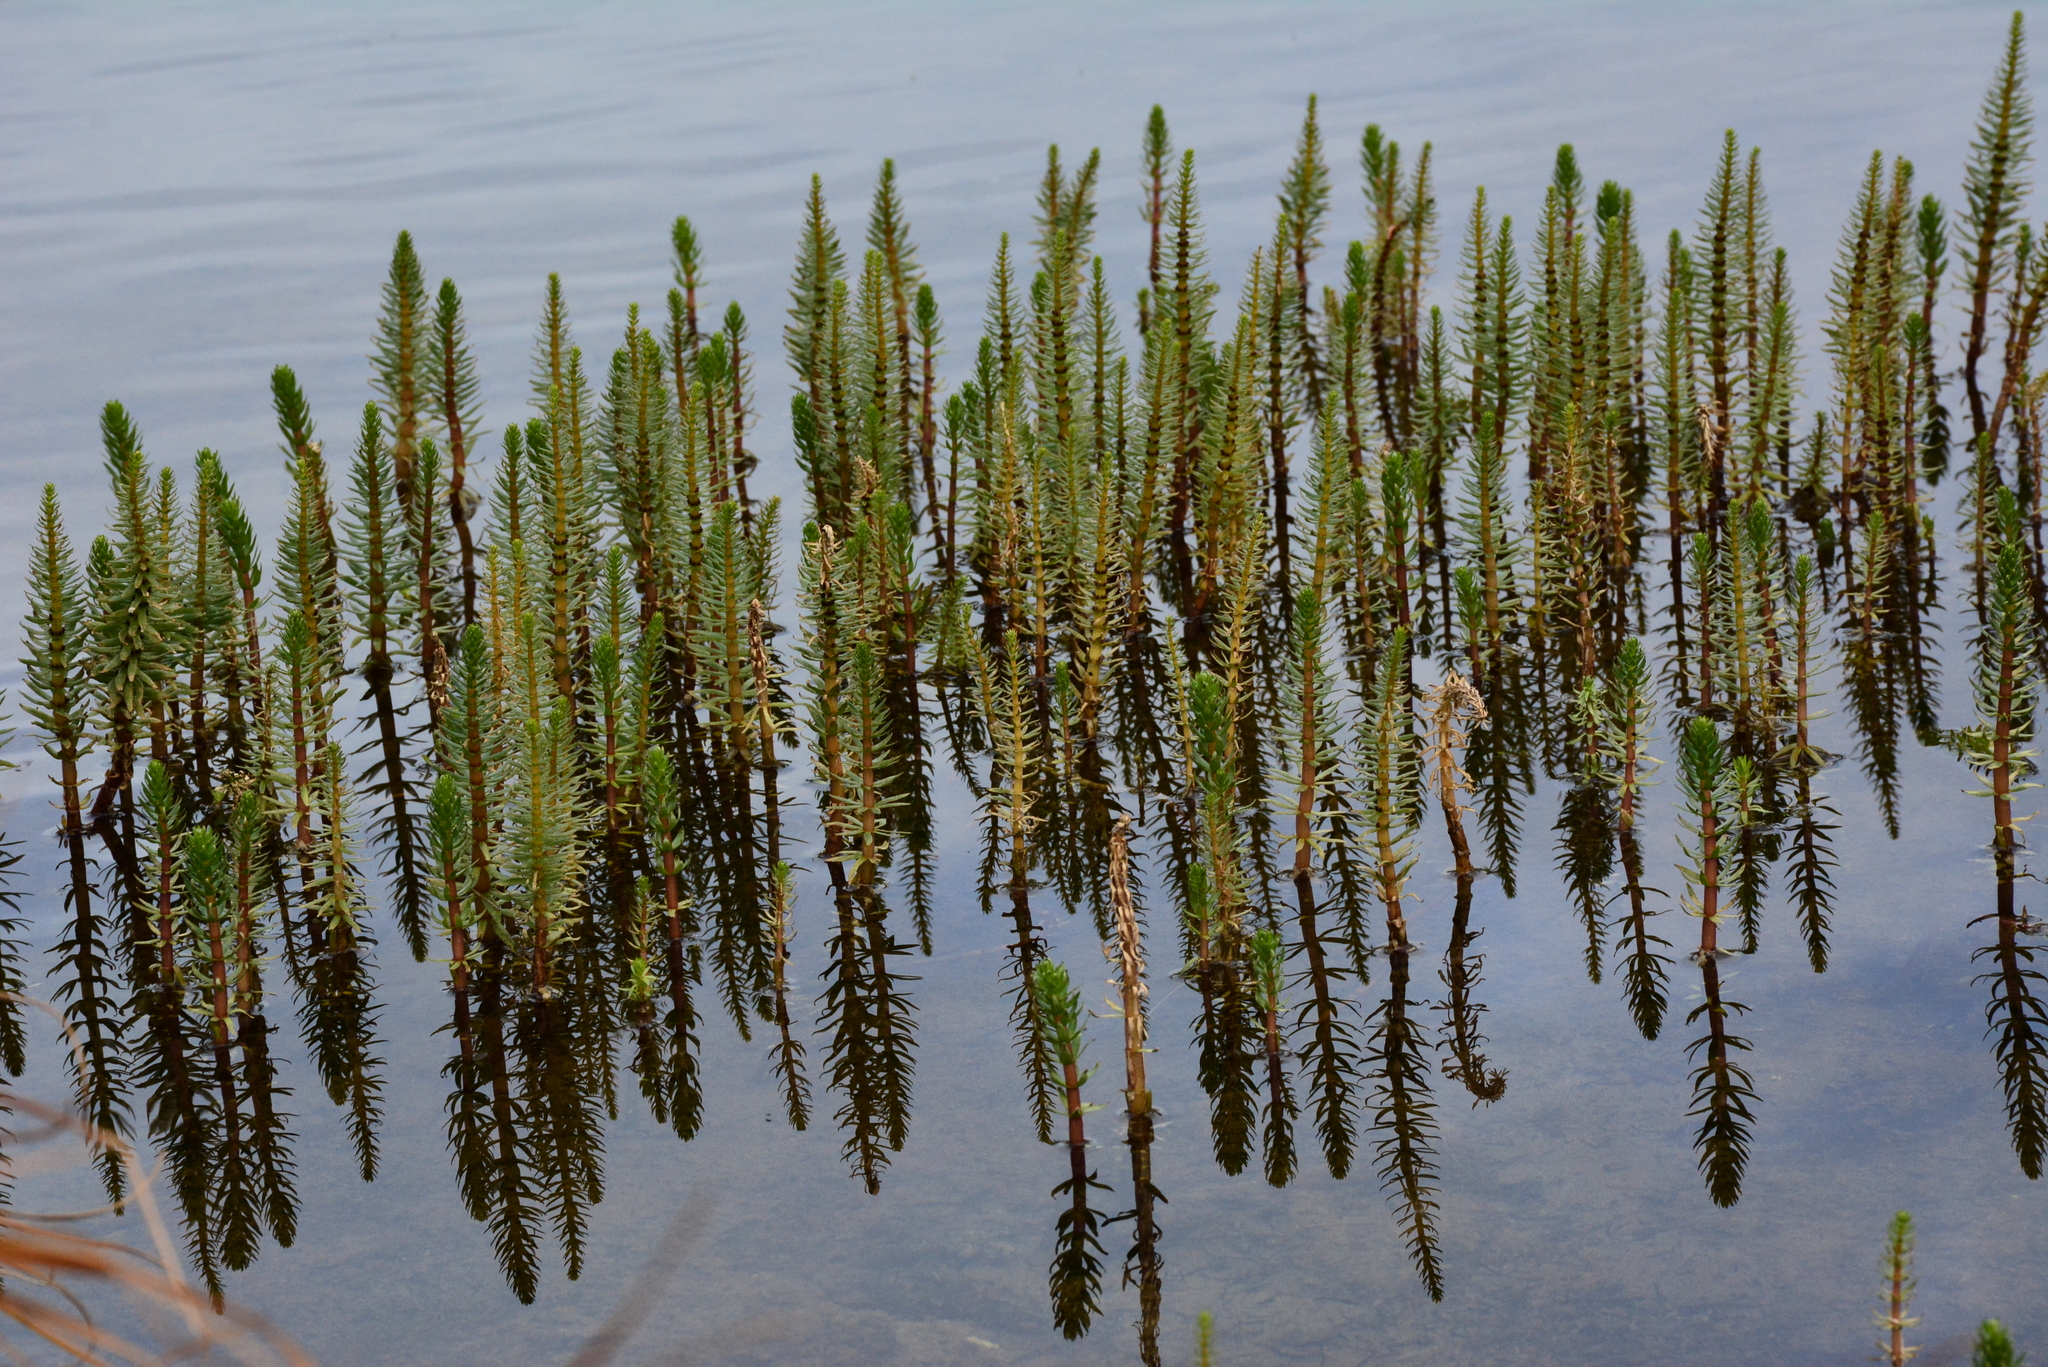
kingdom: Plantae
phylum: Tracheophyta
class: Magnoliopsida
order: Lamiales
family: Plantaginaceae
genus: Hippuris
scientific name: Hippuris vulgaris
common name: Mare's-tail
